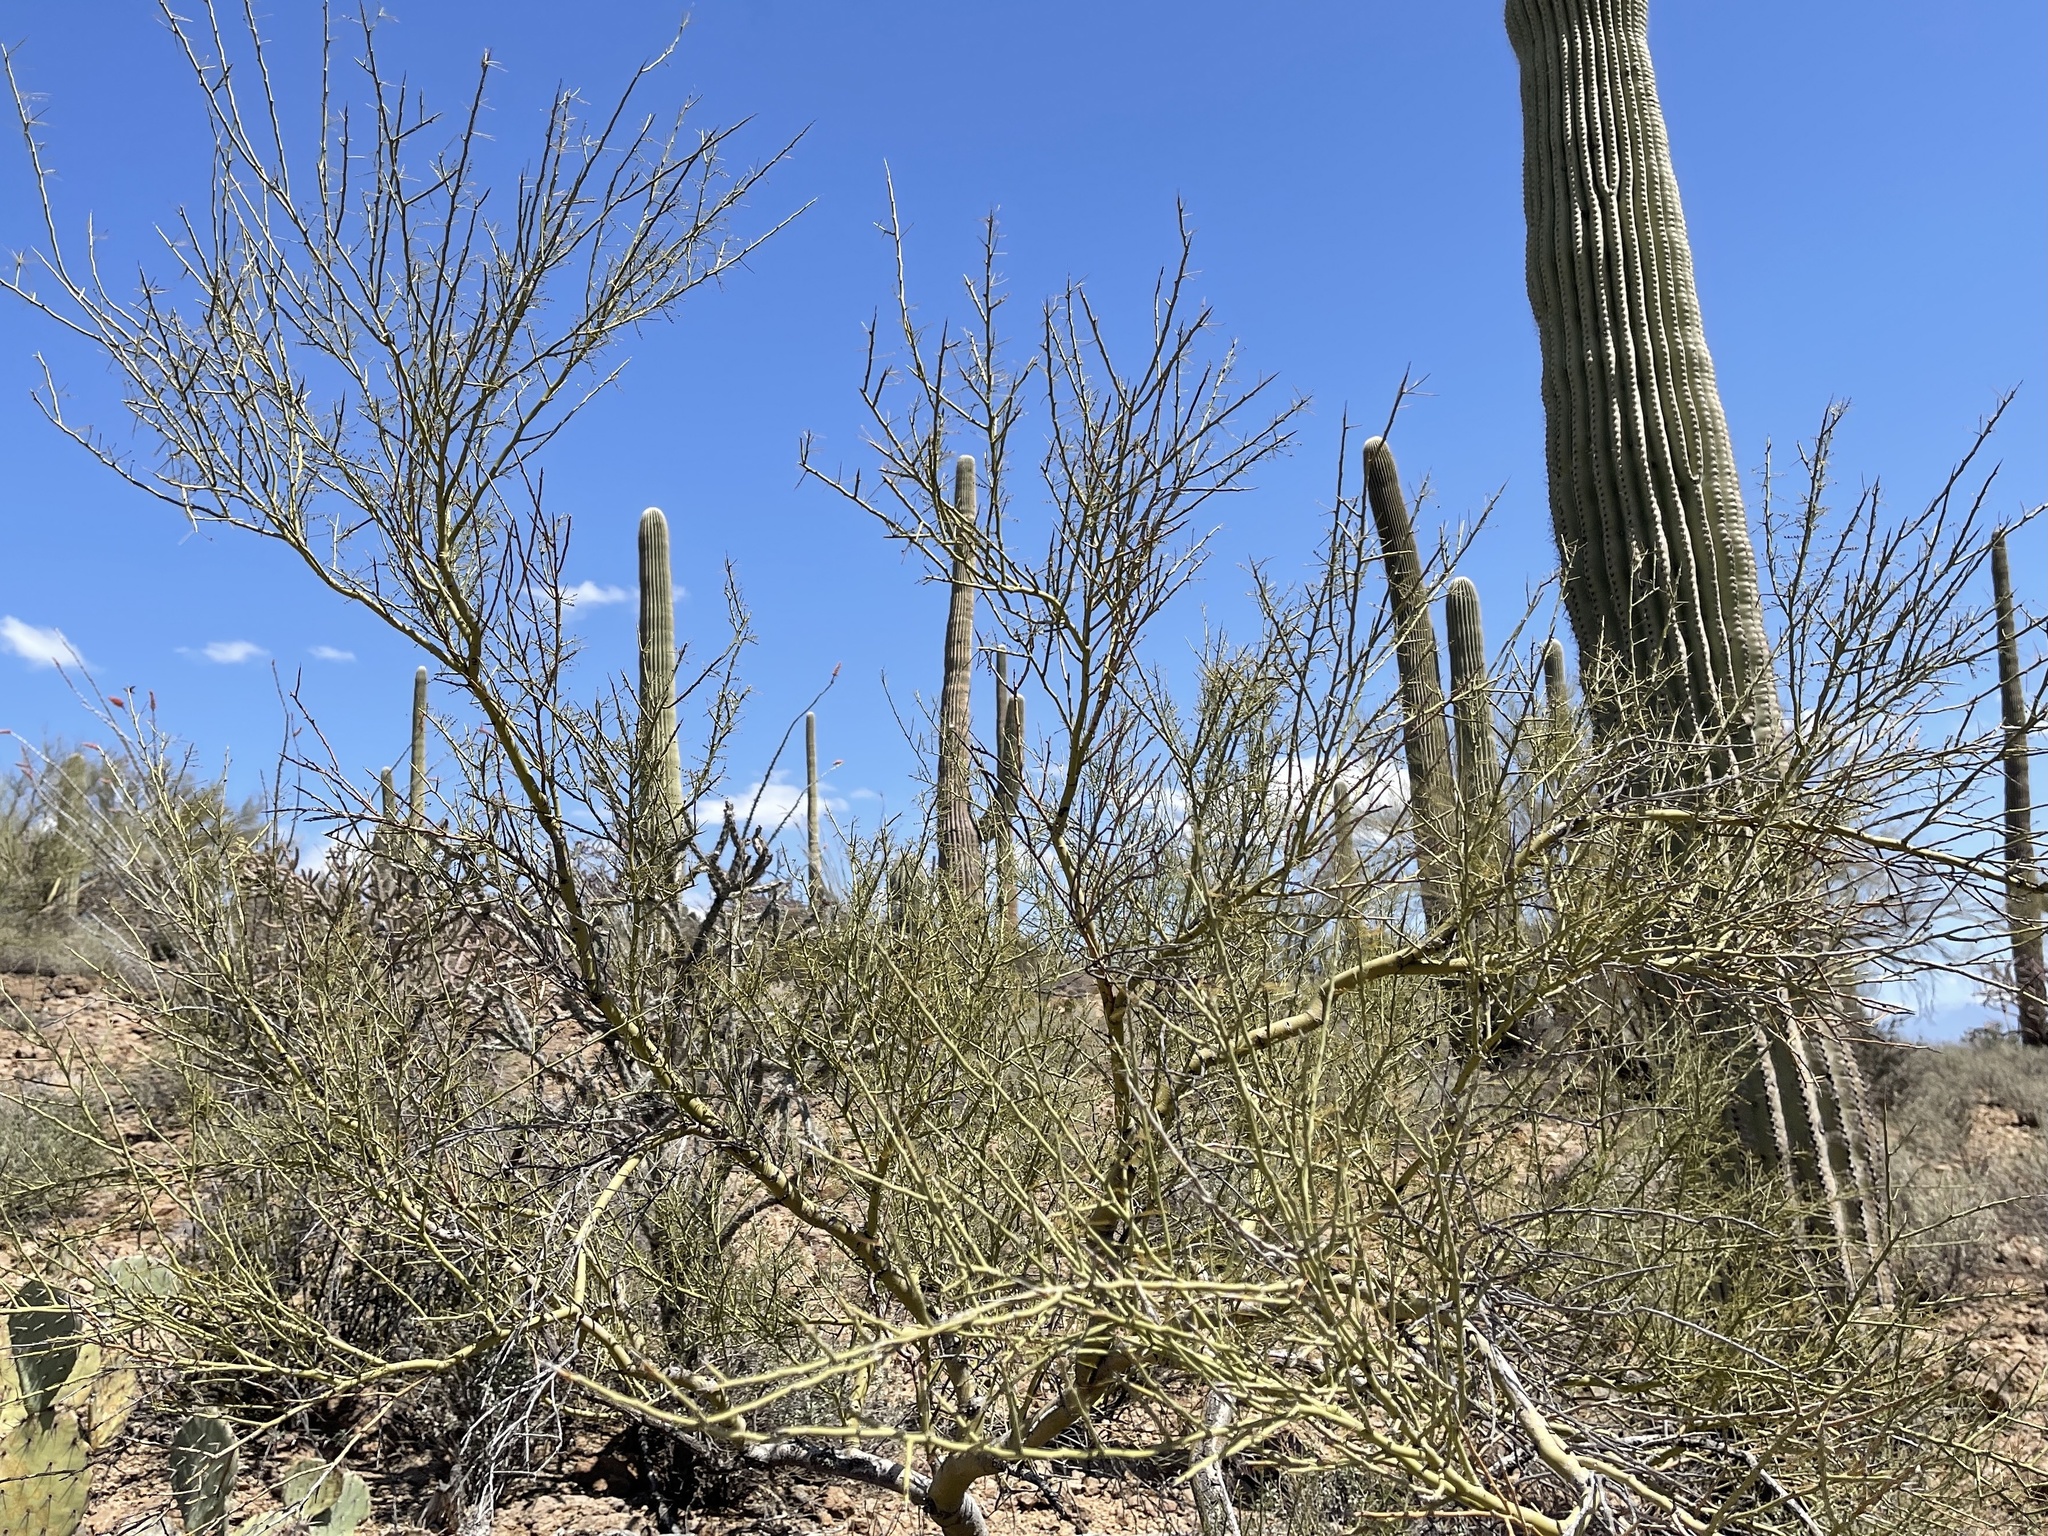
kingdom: Plantae
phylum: Tracheophyta
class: Magnoliopsida
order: Fabales
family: Fabaceae
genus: Parkinsonia
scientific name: Parkinsonia microphylla
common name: Yellow paloverde
